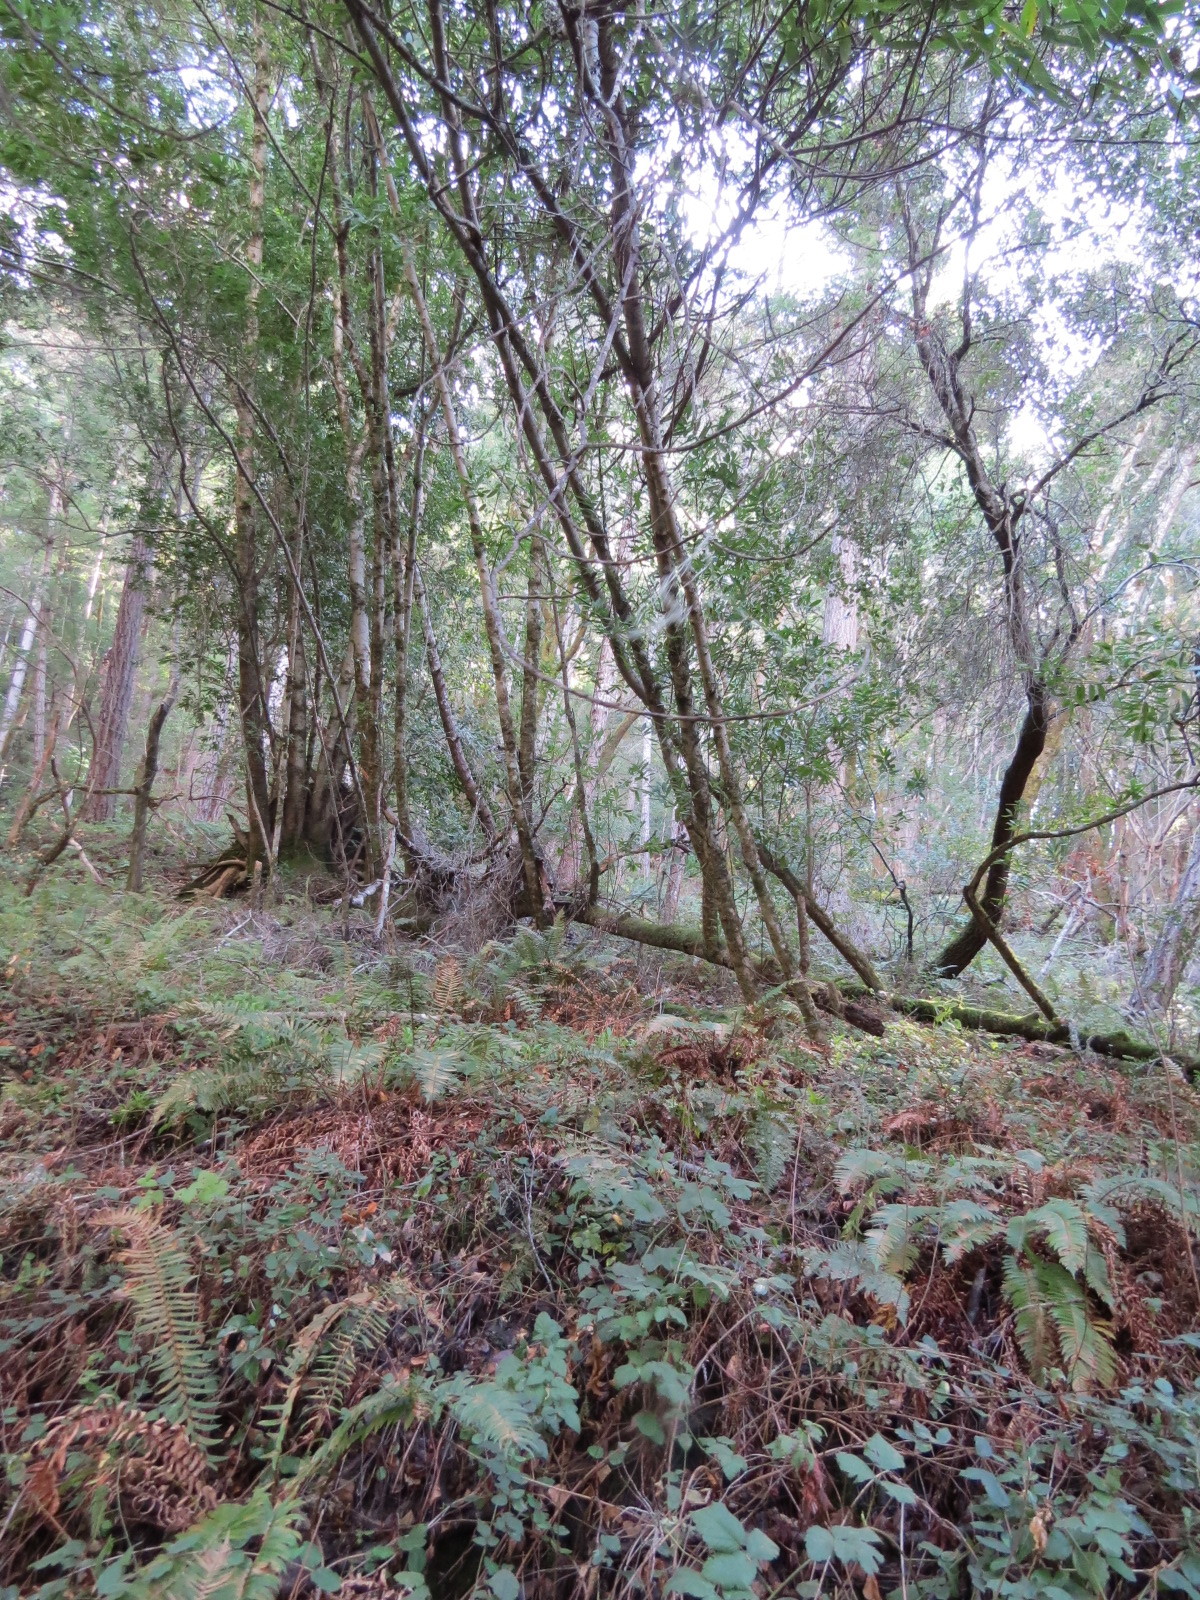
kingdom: Plantae
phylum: Tracheophyta
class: Magnoliopsida
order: Laurales
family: Lauraceae
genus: Umbellularia
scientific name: Umbellularia californica
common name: California bay
